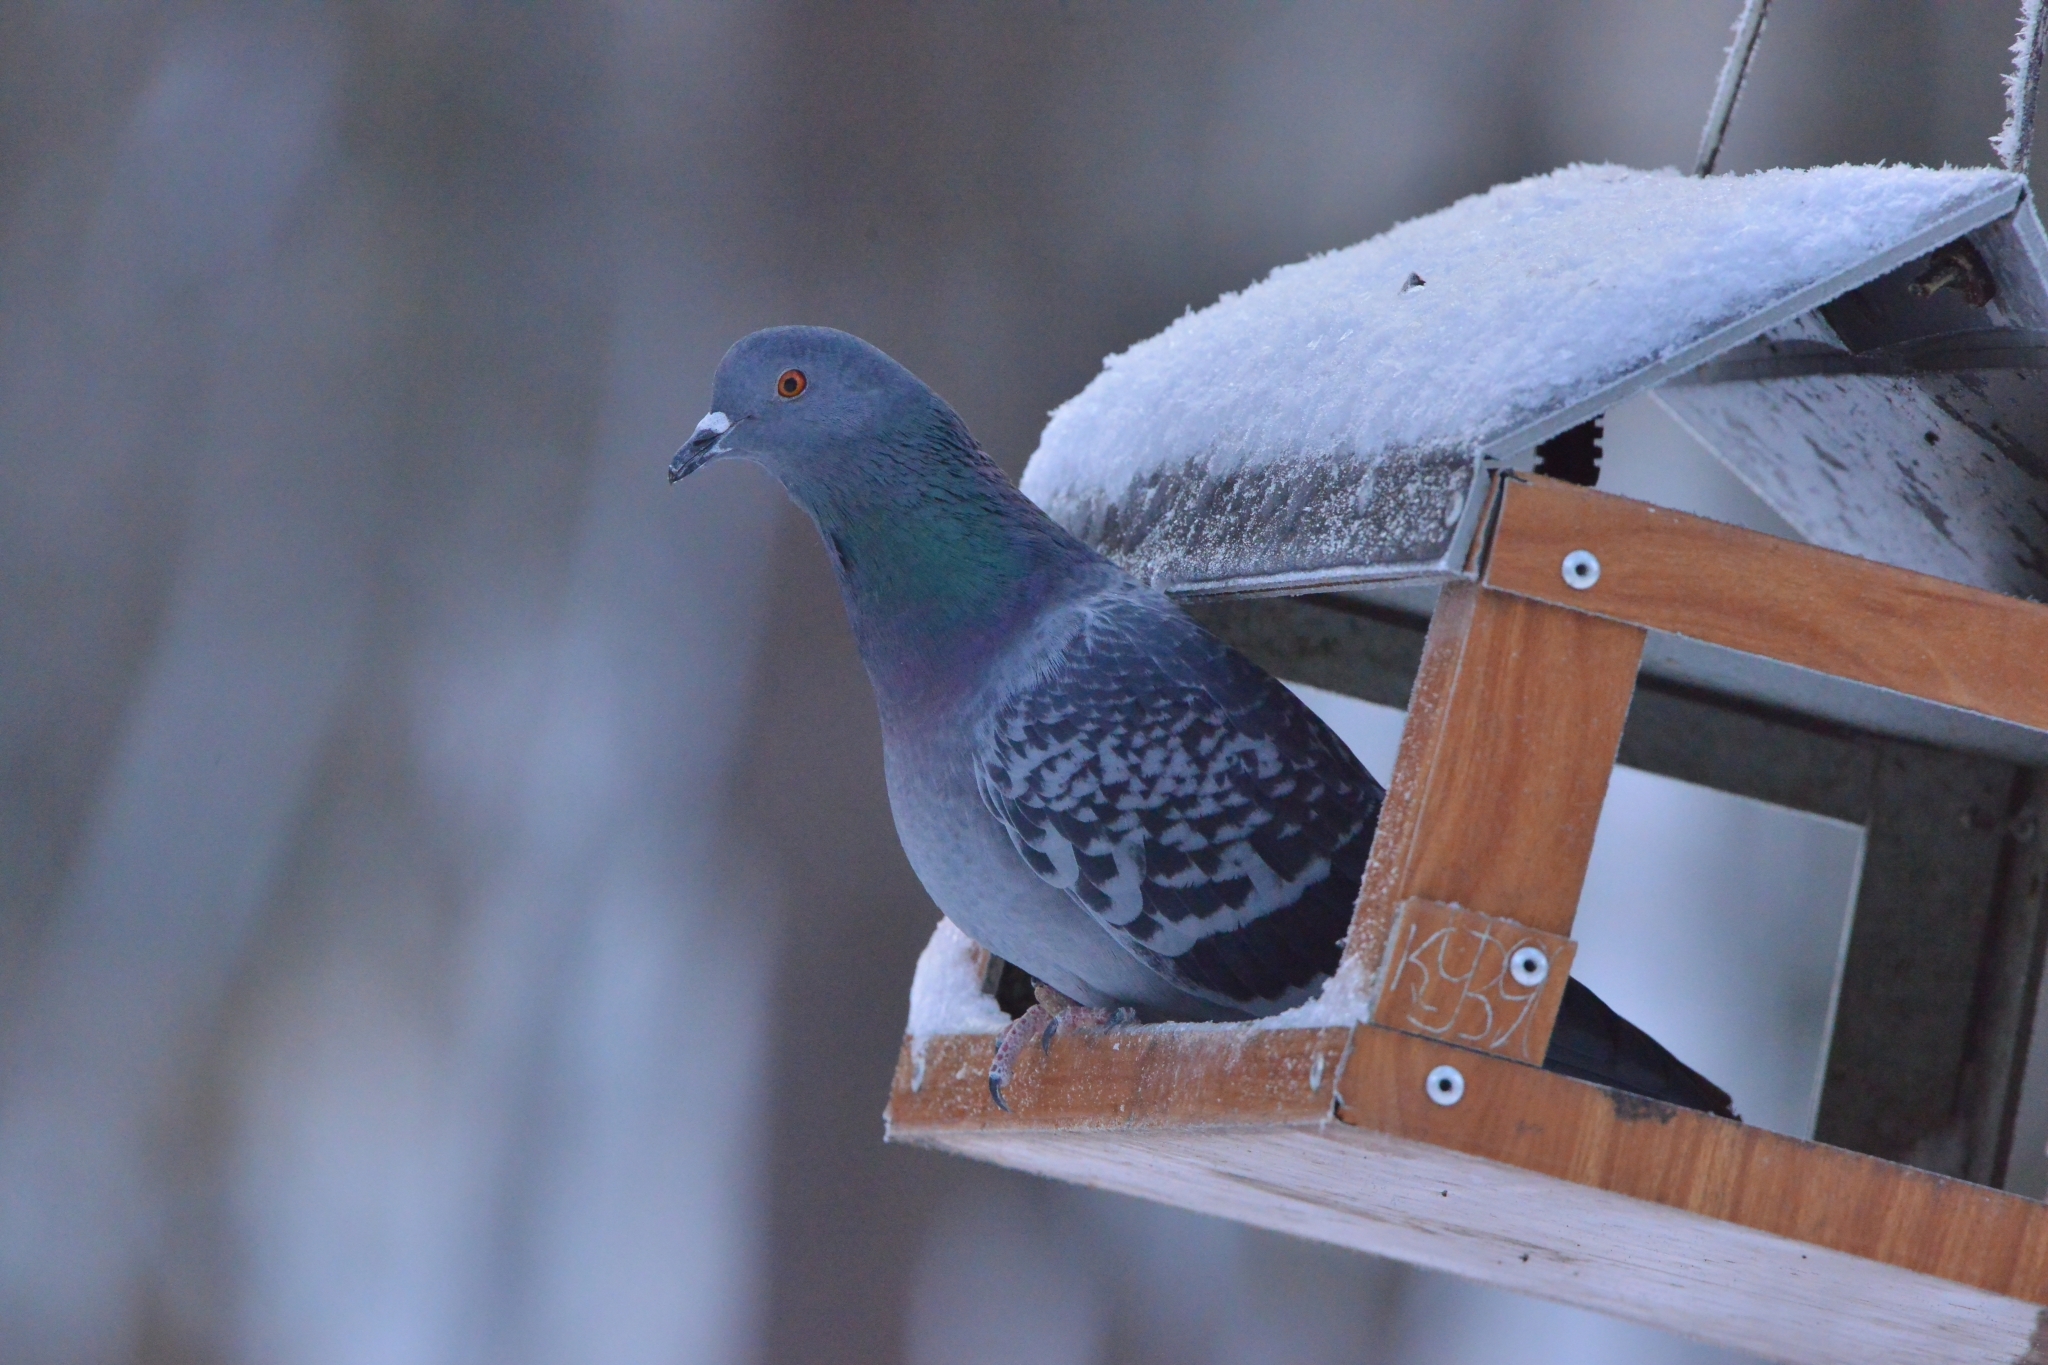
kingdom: Animalia
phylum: Chordata
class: Aves
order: Columbiformes
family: Columbidae
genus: Columba
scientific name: Columba livia
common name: Rock pigeon
